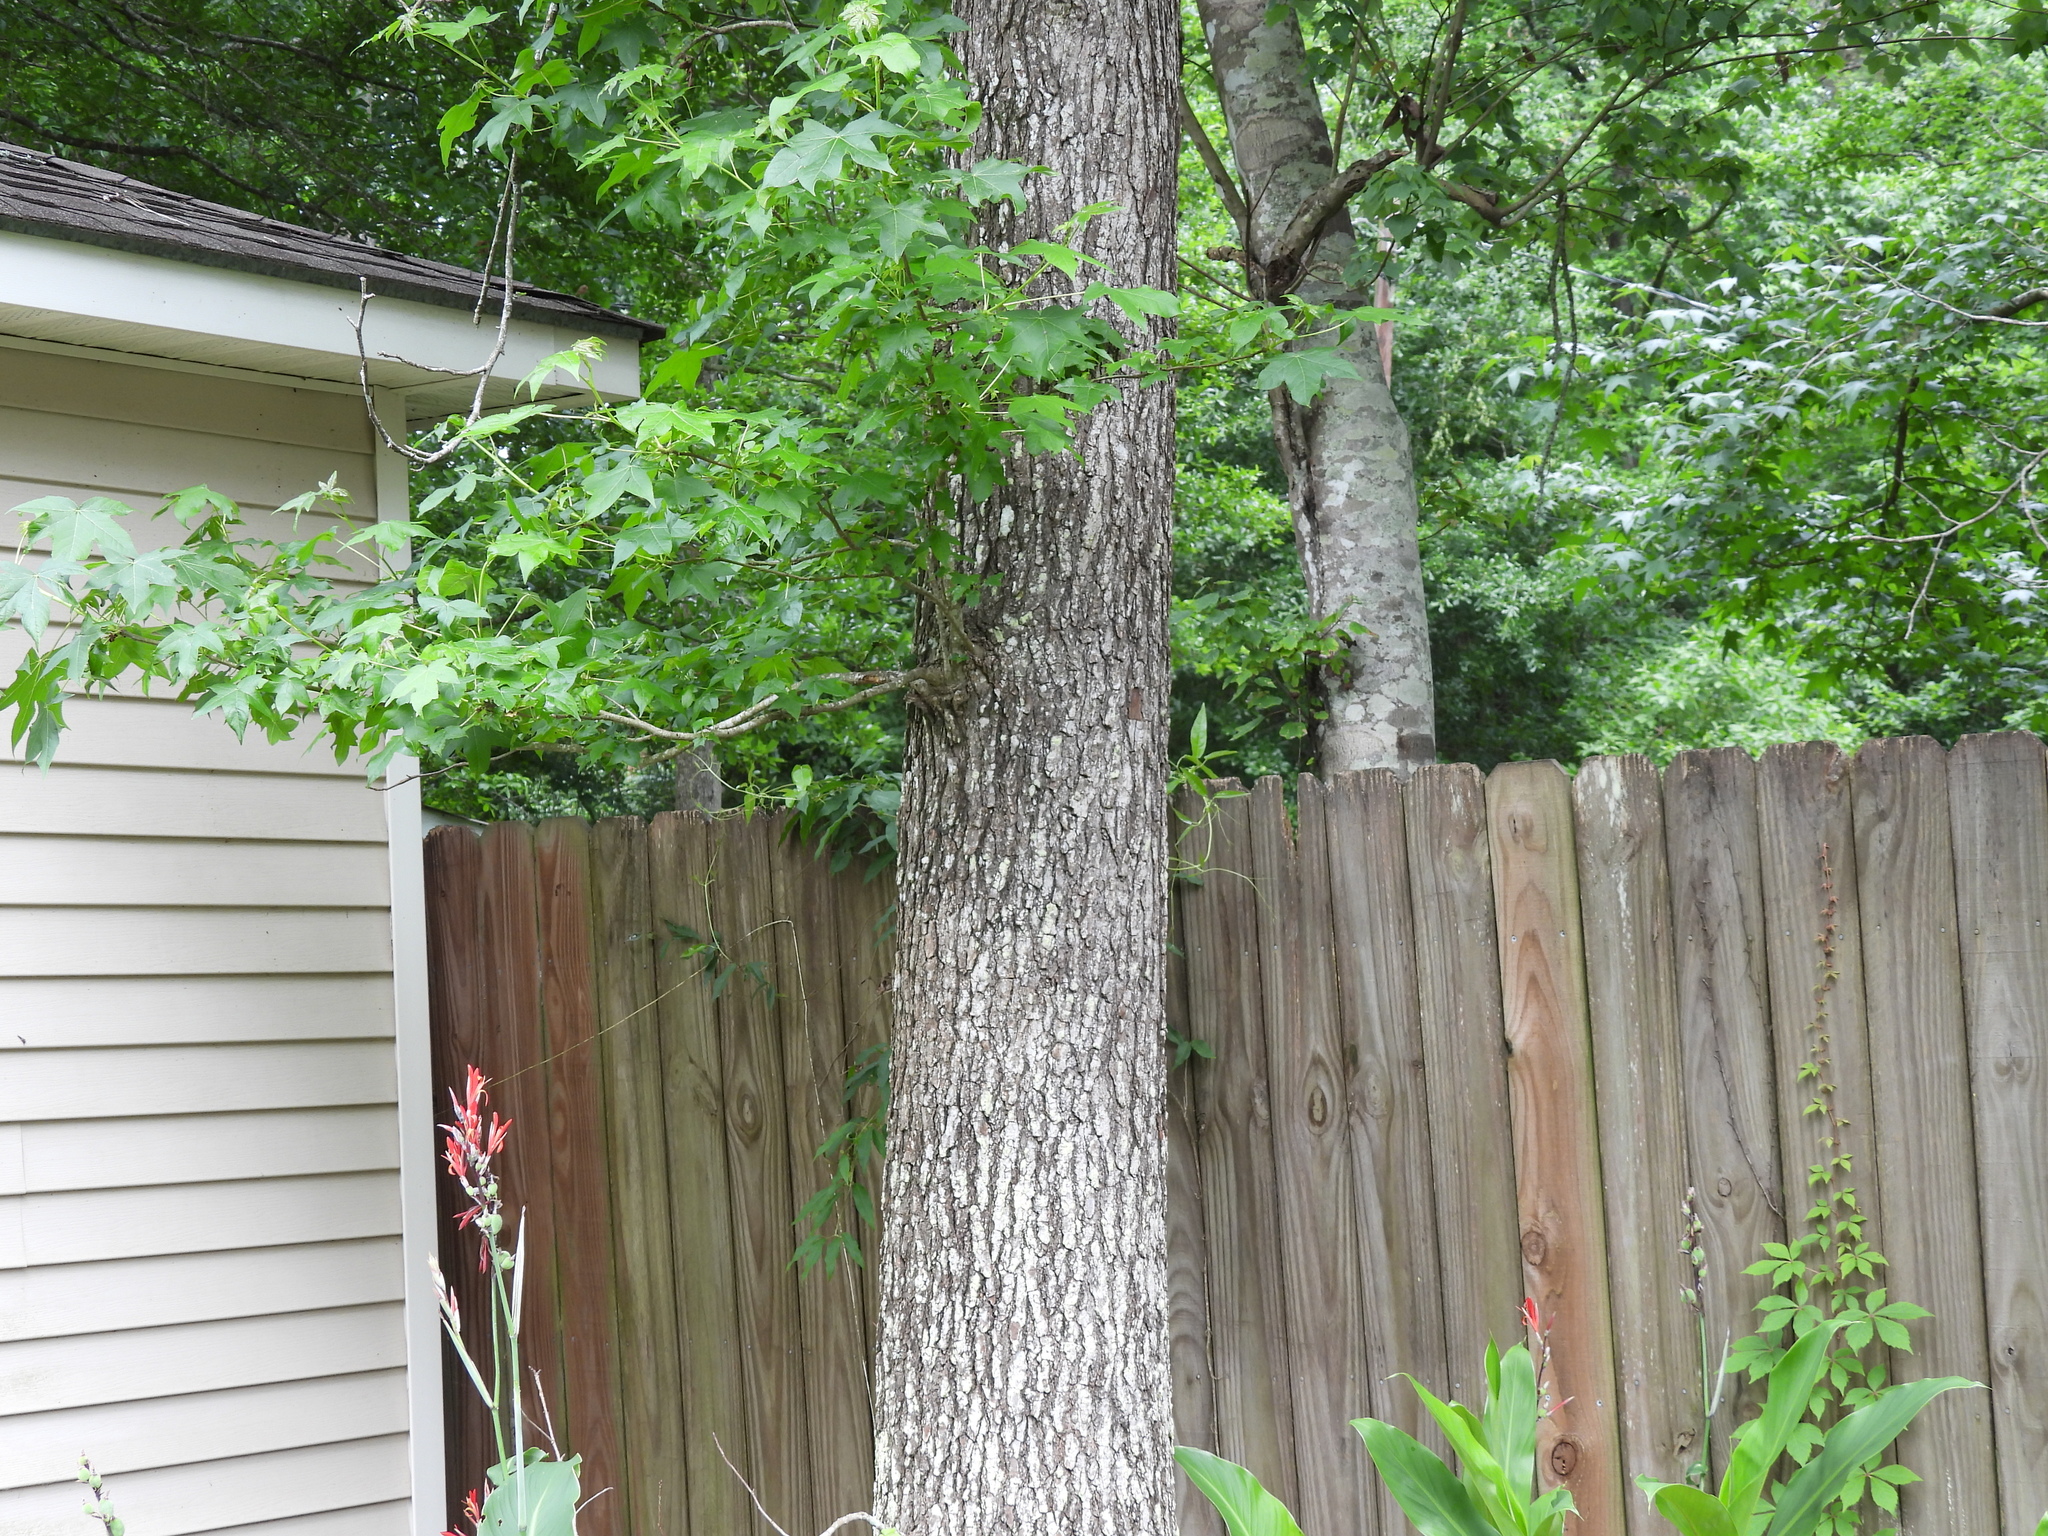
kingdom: Plantae
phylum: Tracheophyta
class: Magnoliopsida
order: Saxifragales
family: Altingiaceae
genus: Liquidambar
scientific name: Liquidambar styraciflua
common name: Sweet gum
